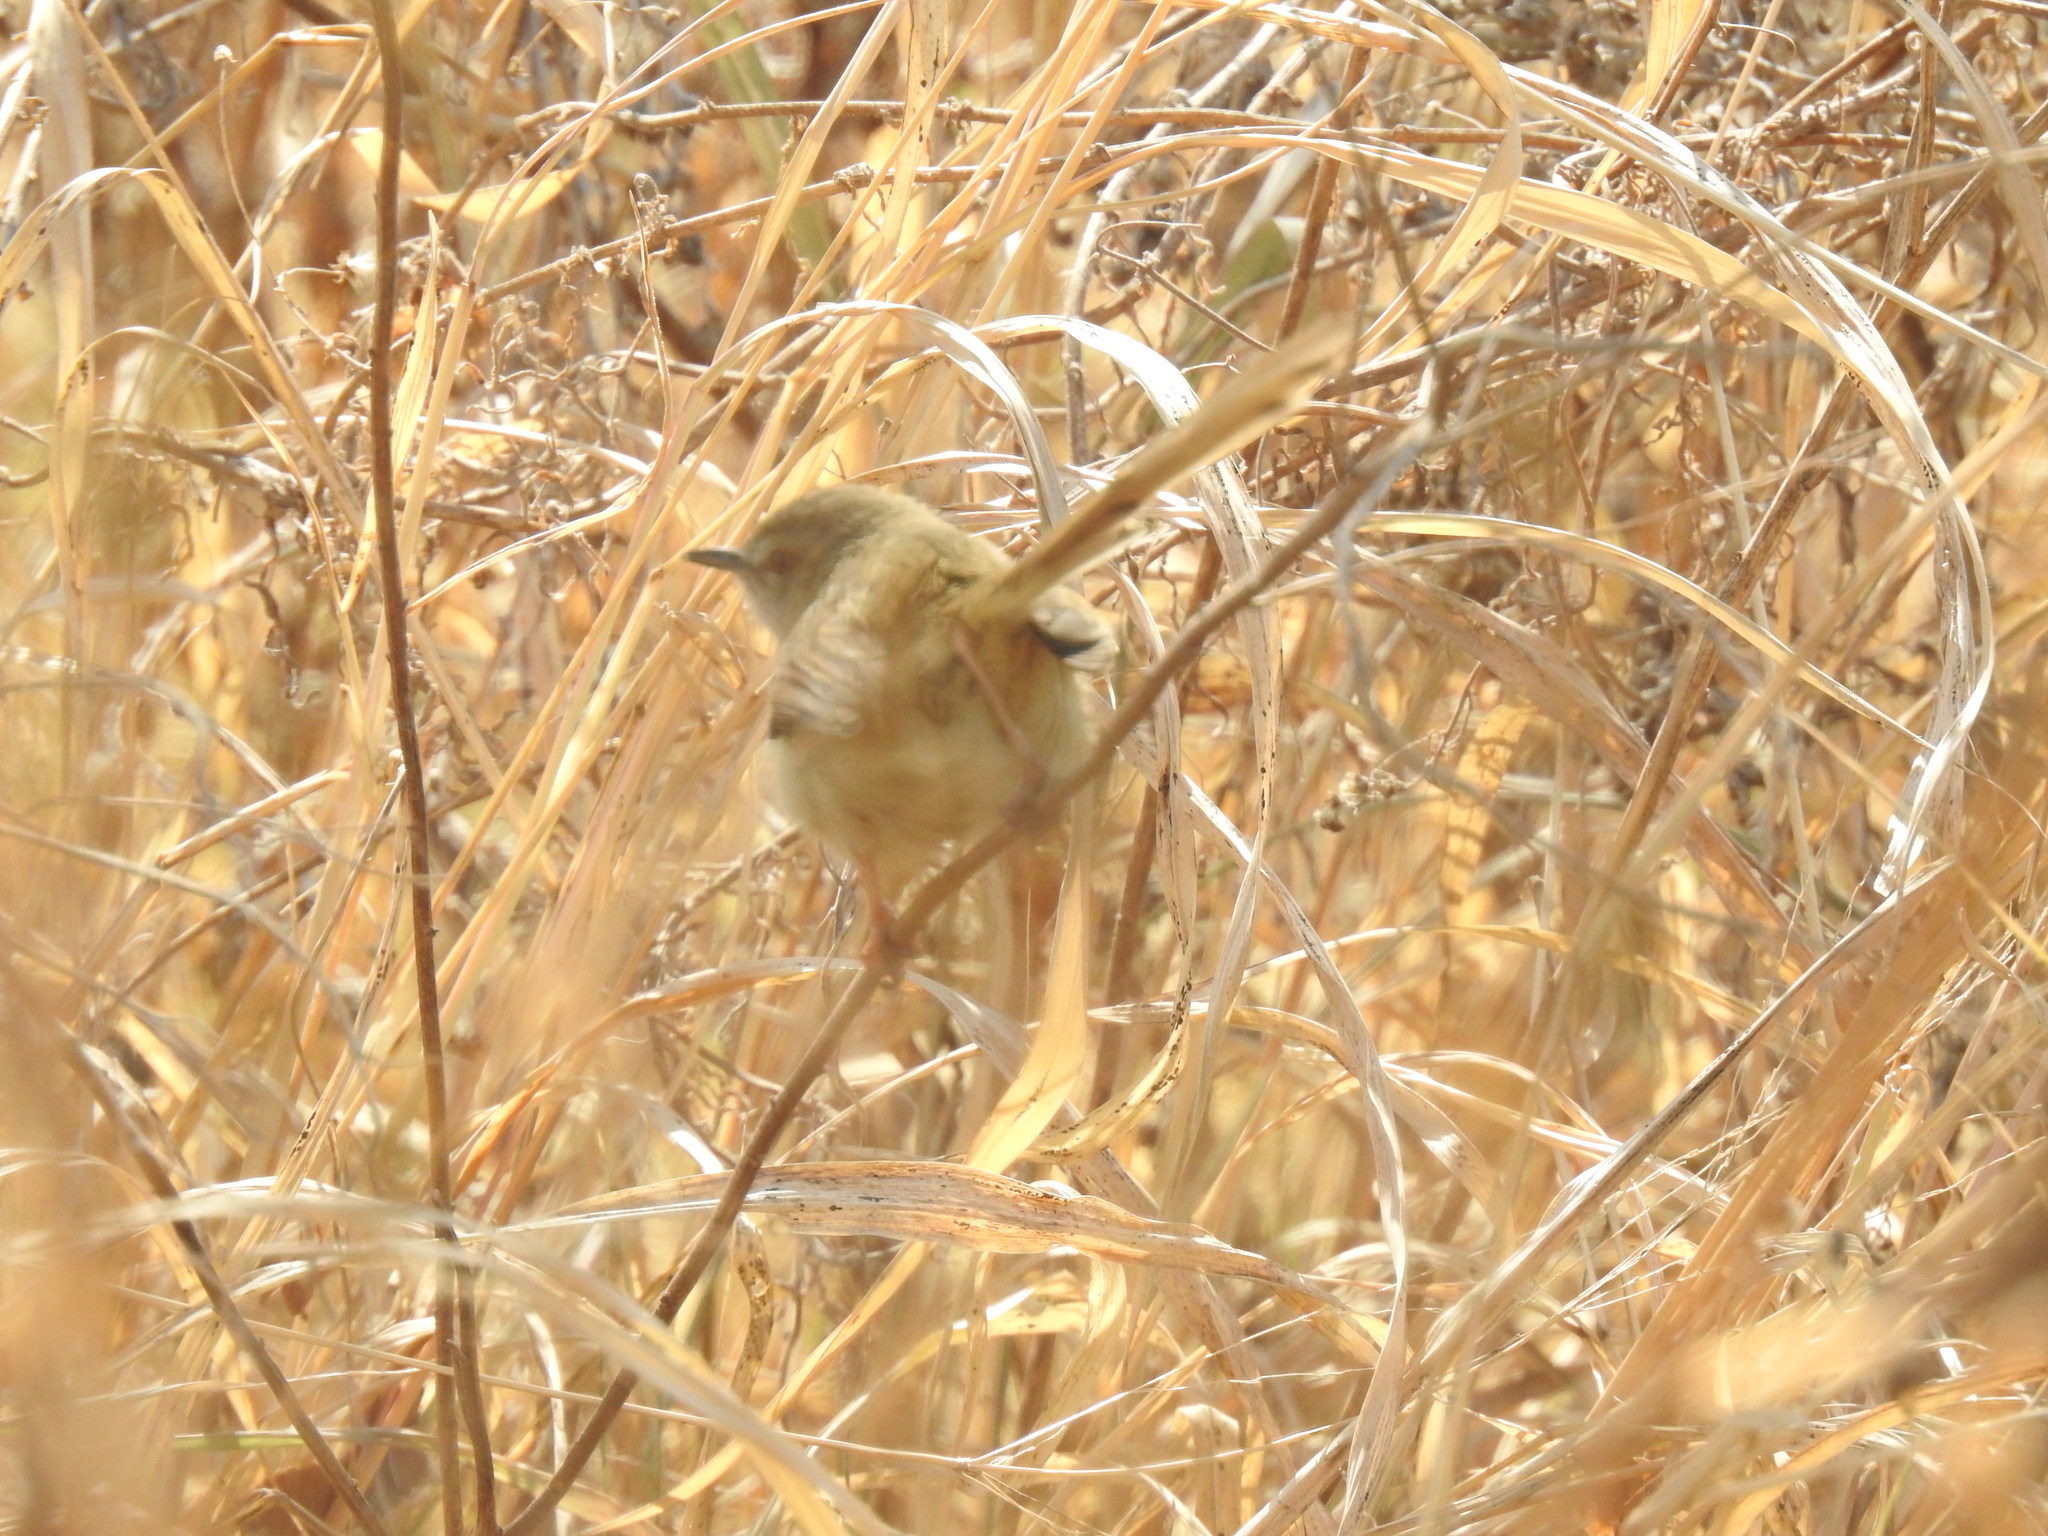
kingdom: Animalia
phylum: Chordata
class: Aves
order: Passeriformes
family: Cisticolidae
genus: Prinia
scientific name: Prinia subflava
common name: Tawny-flanked prinia
